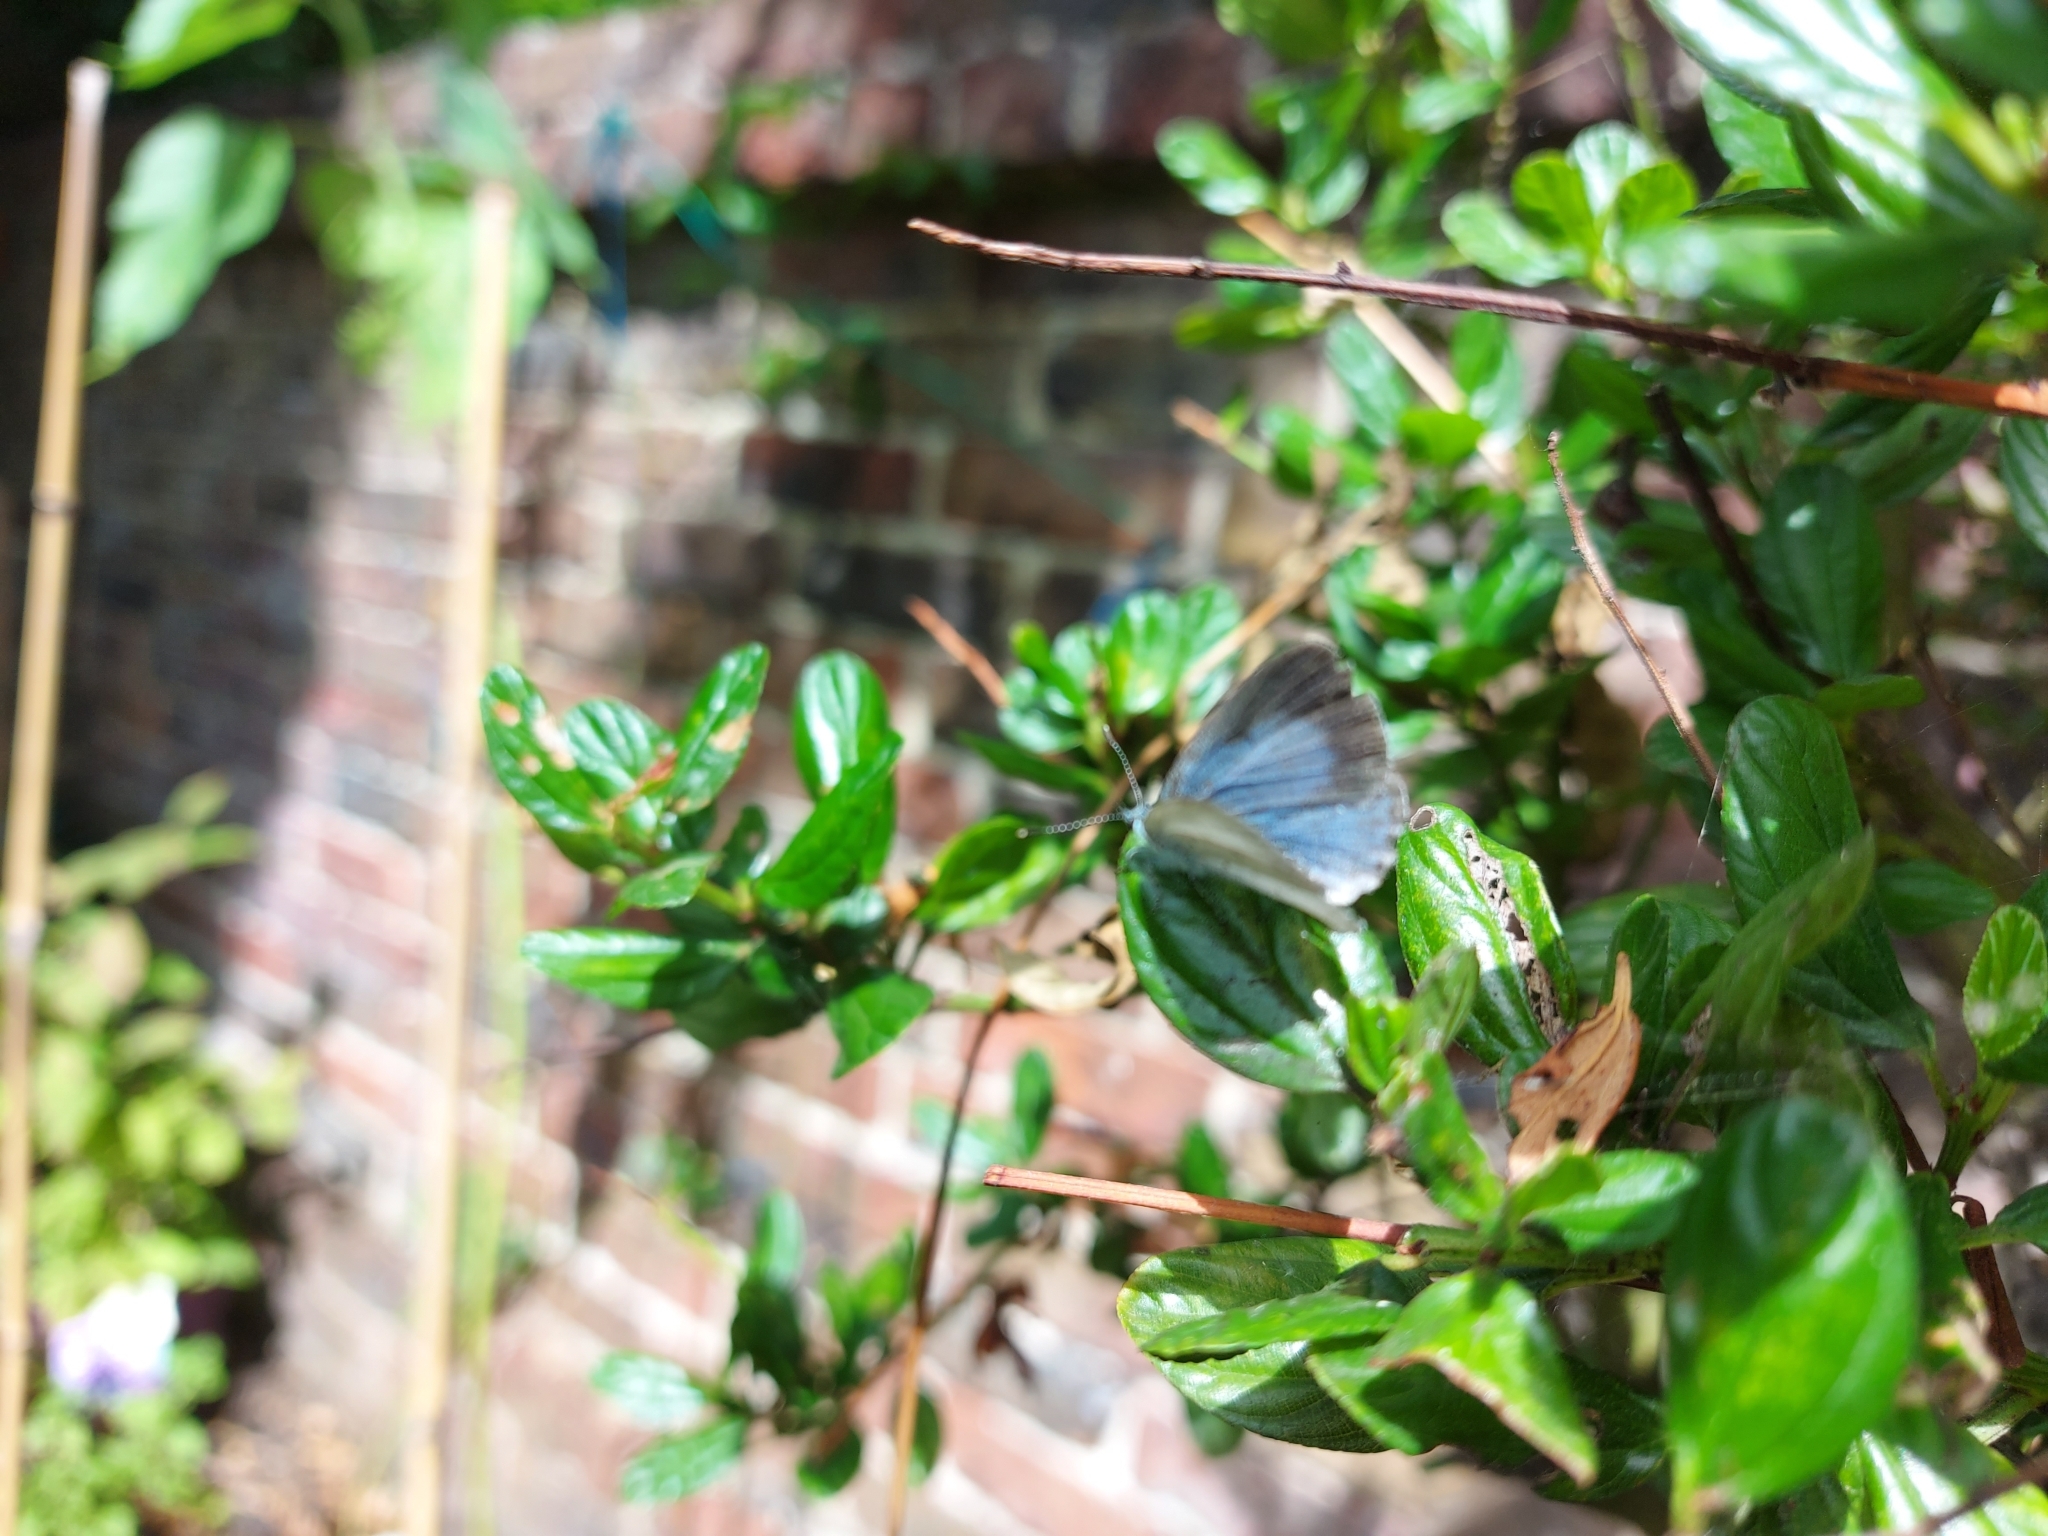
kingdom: Animalia
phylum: Arthropoda
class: Insecta
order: Lepidoptera
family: Lycaenidae
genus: Celastrina
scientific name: Celastrina argiolus
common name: Holly blue
